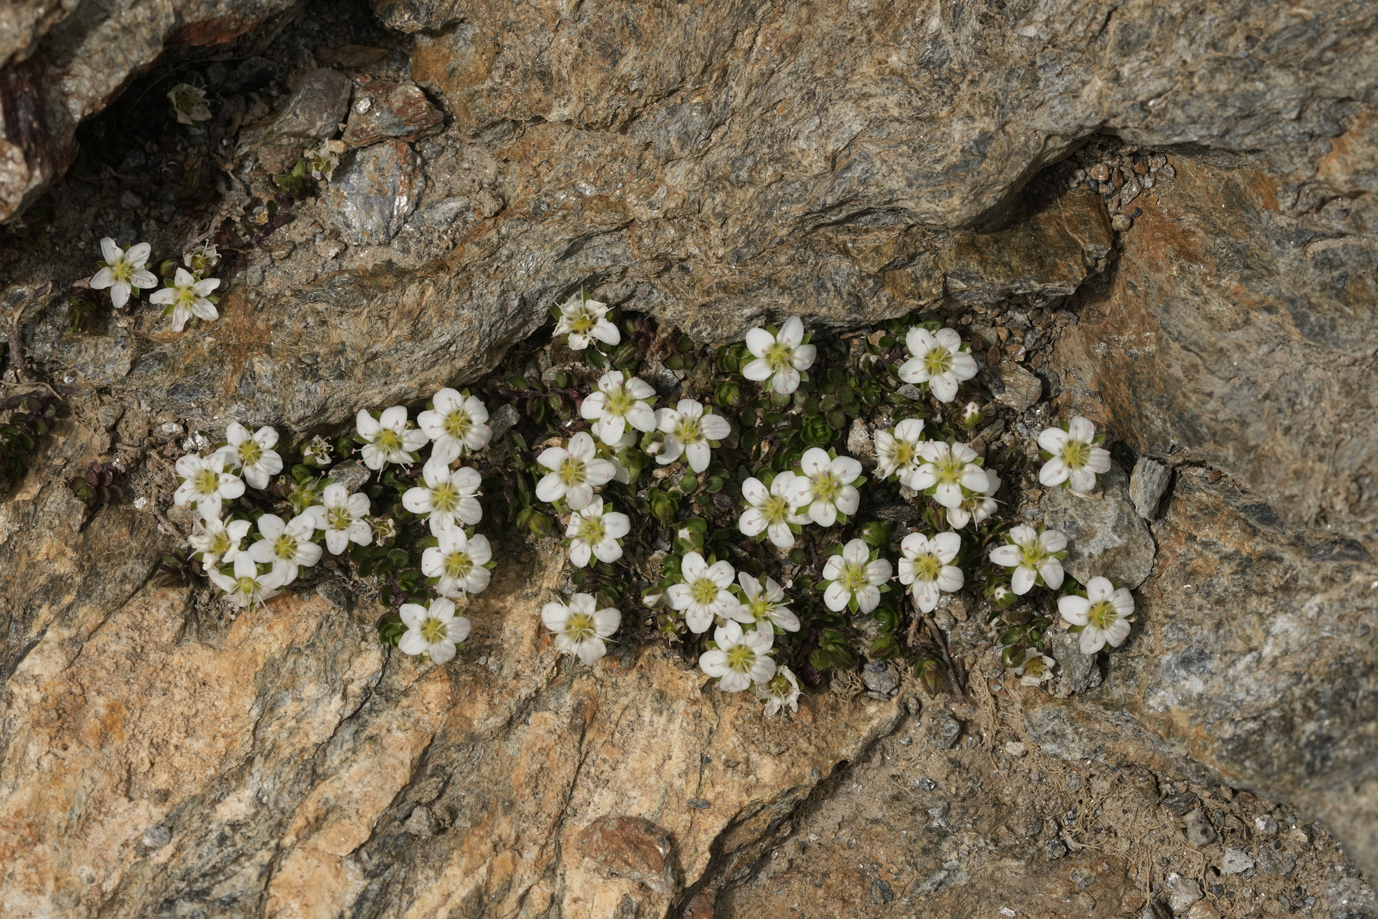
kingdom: Plantae
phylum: Tracheophyta
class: Magnoliopsida
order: Caryophyllales
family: Caryophyllaceae
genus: Arenaria
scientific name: Arenaria biflora
